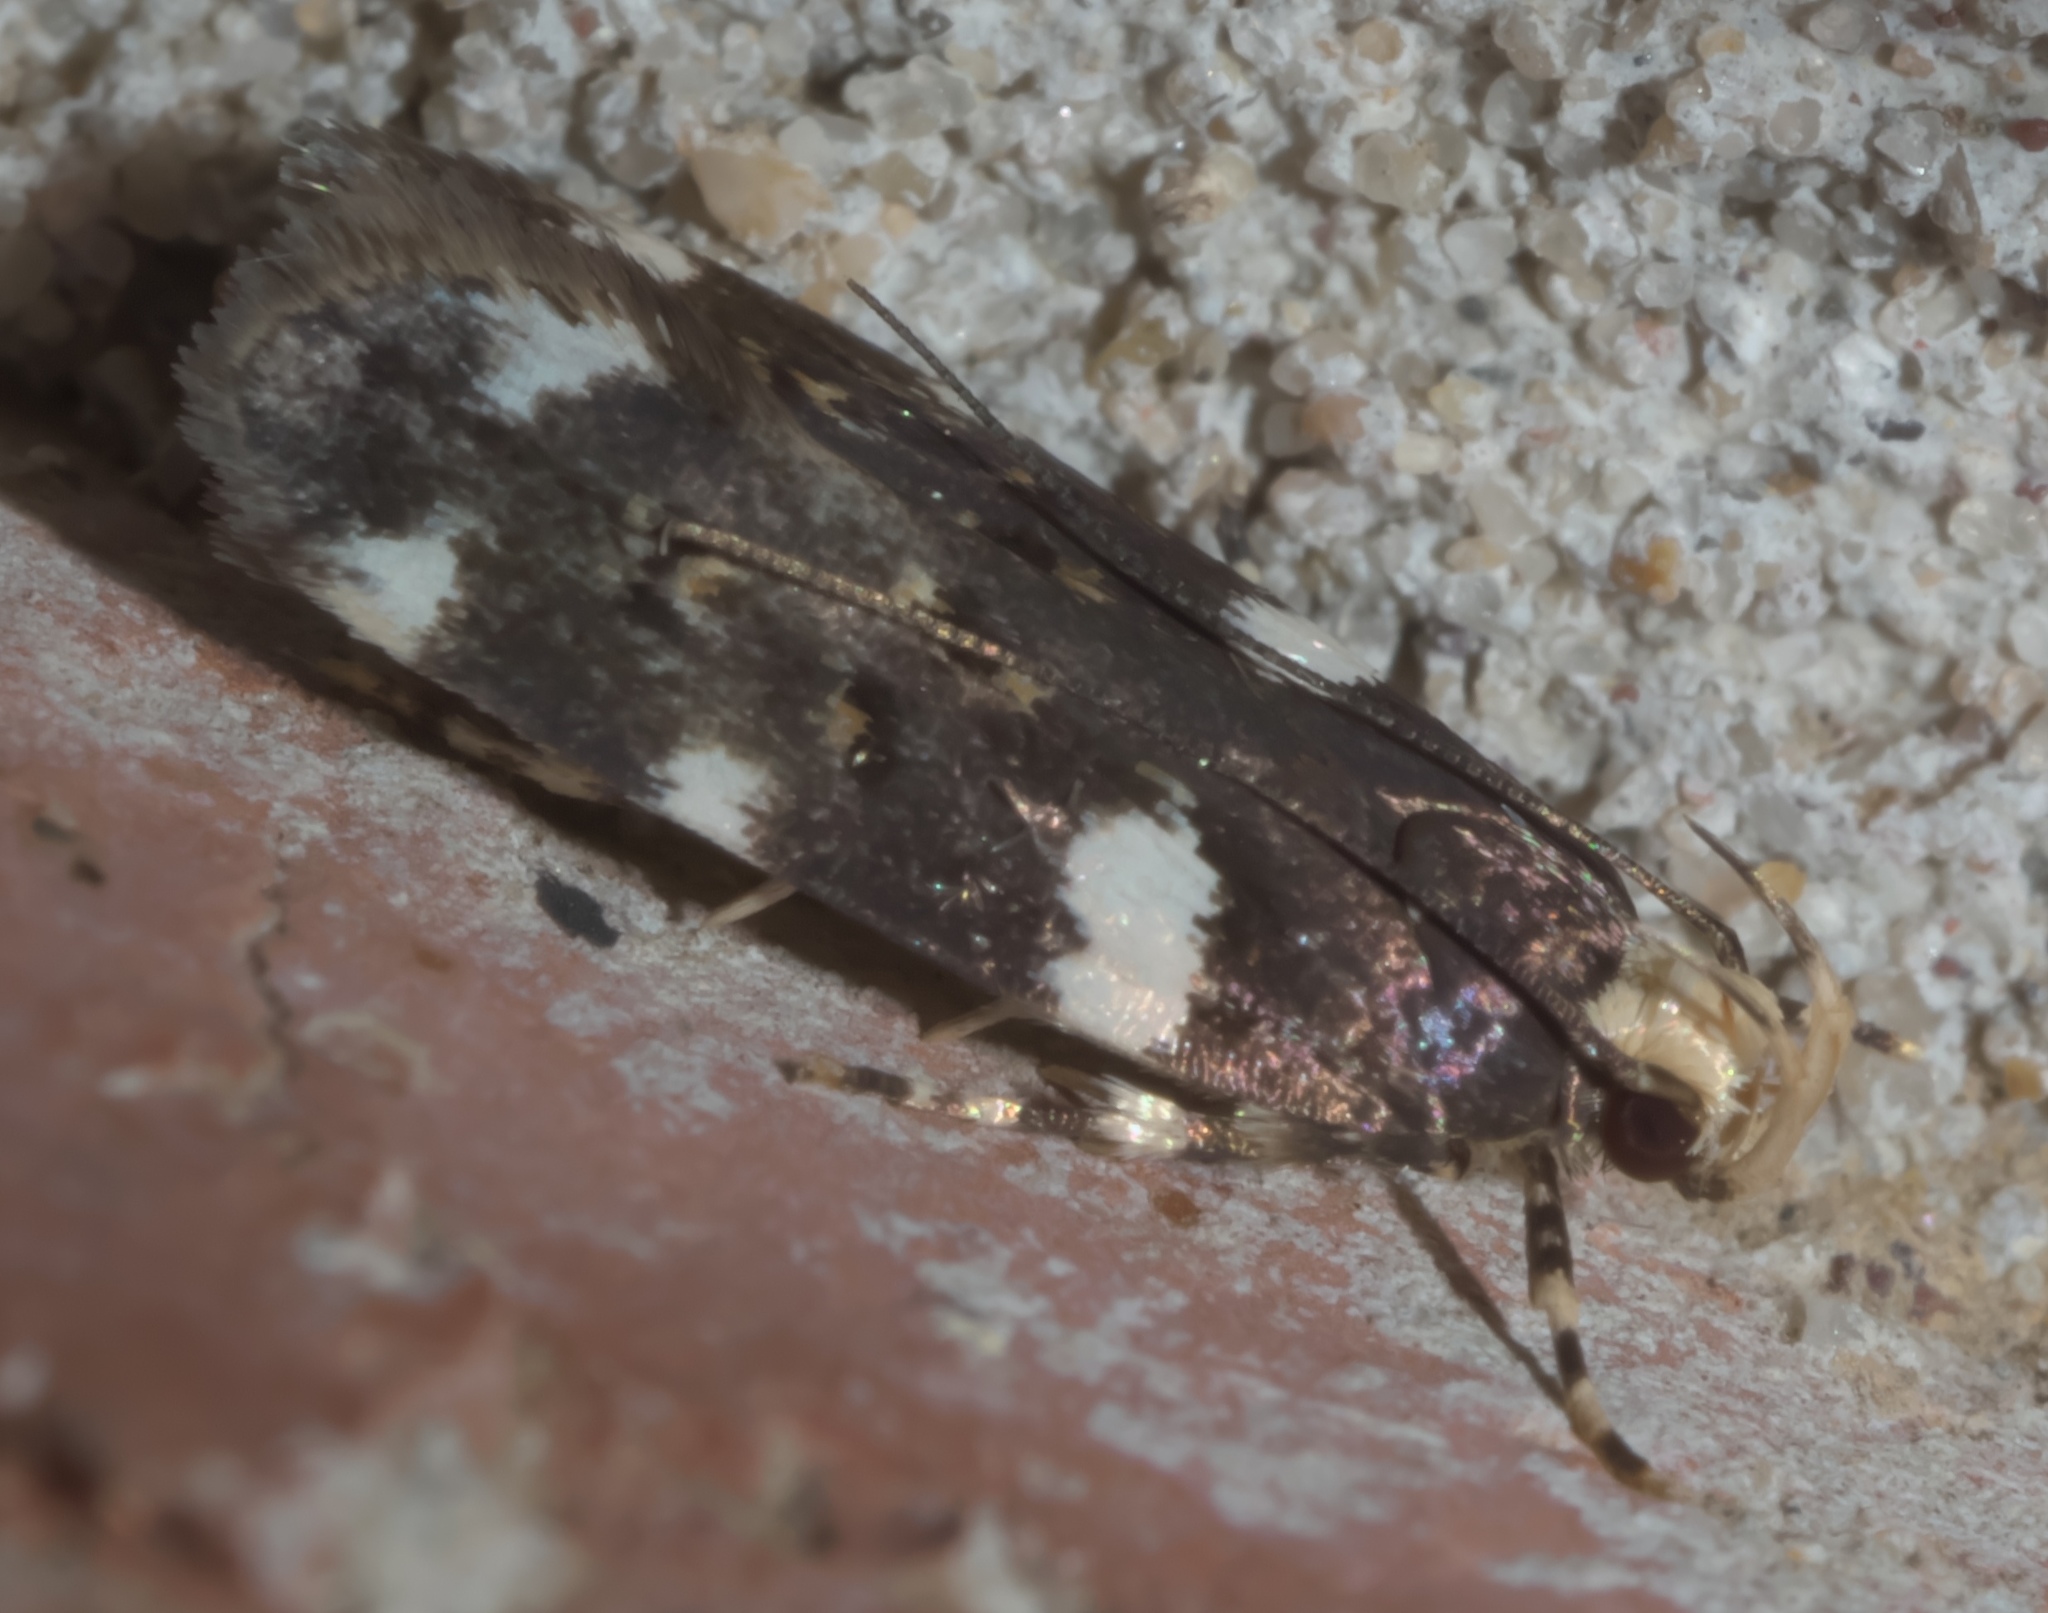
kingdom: Animalia
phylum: Arthropoda
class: Insecta
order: Lepidoptera
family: Gelechiidae
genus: Fascista
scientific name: Fascista cercerisella
